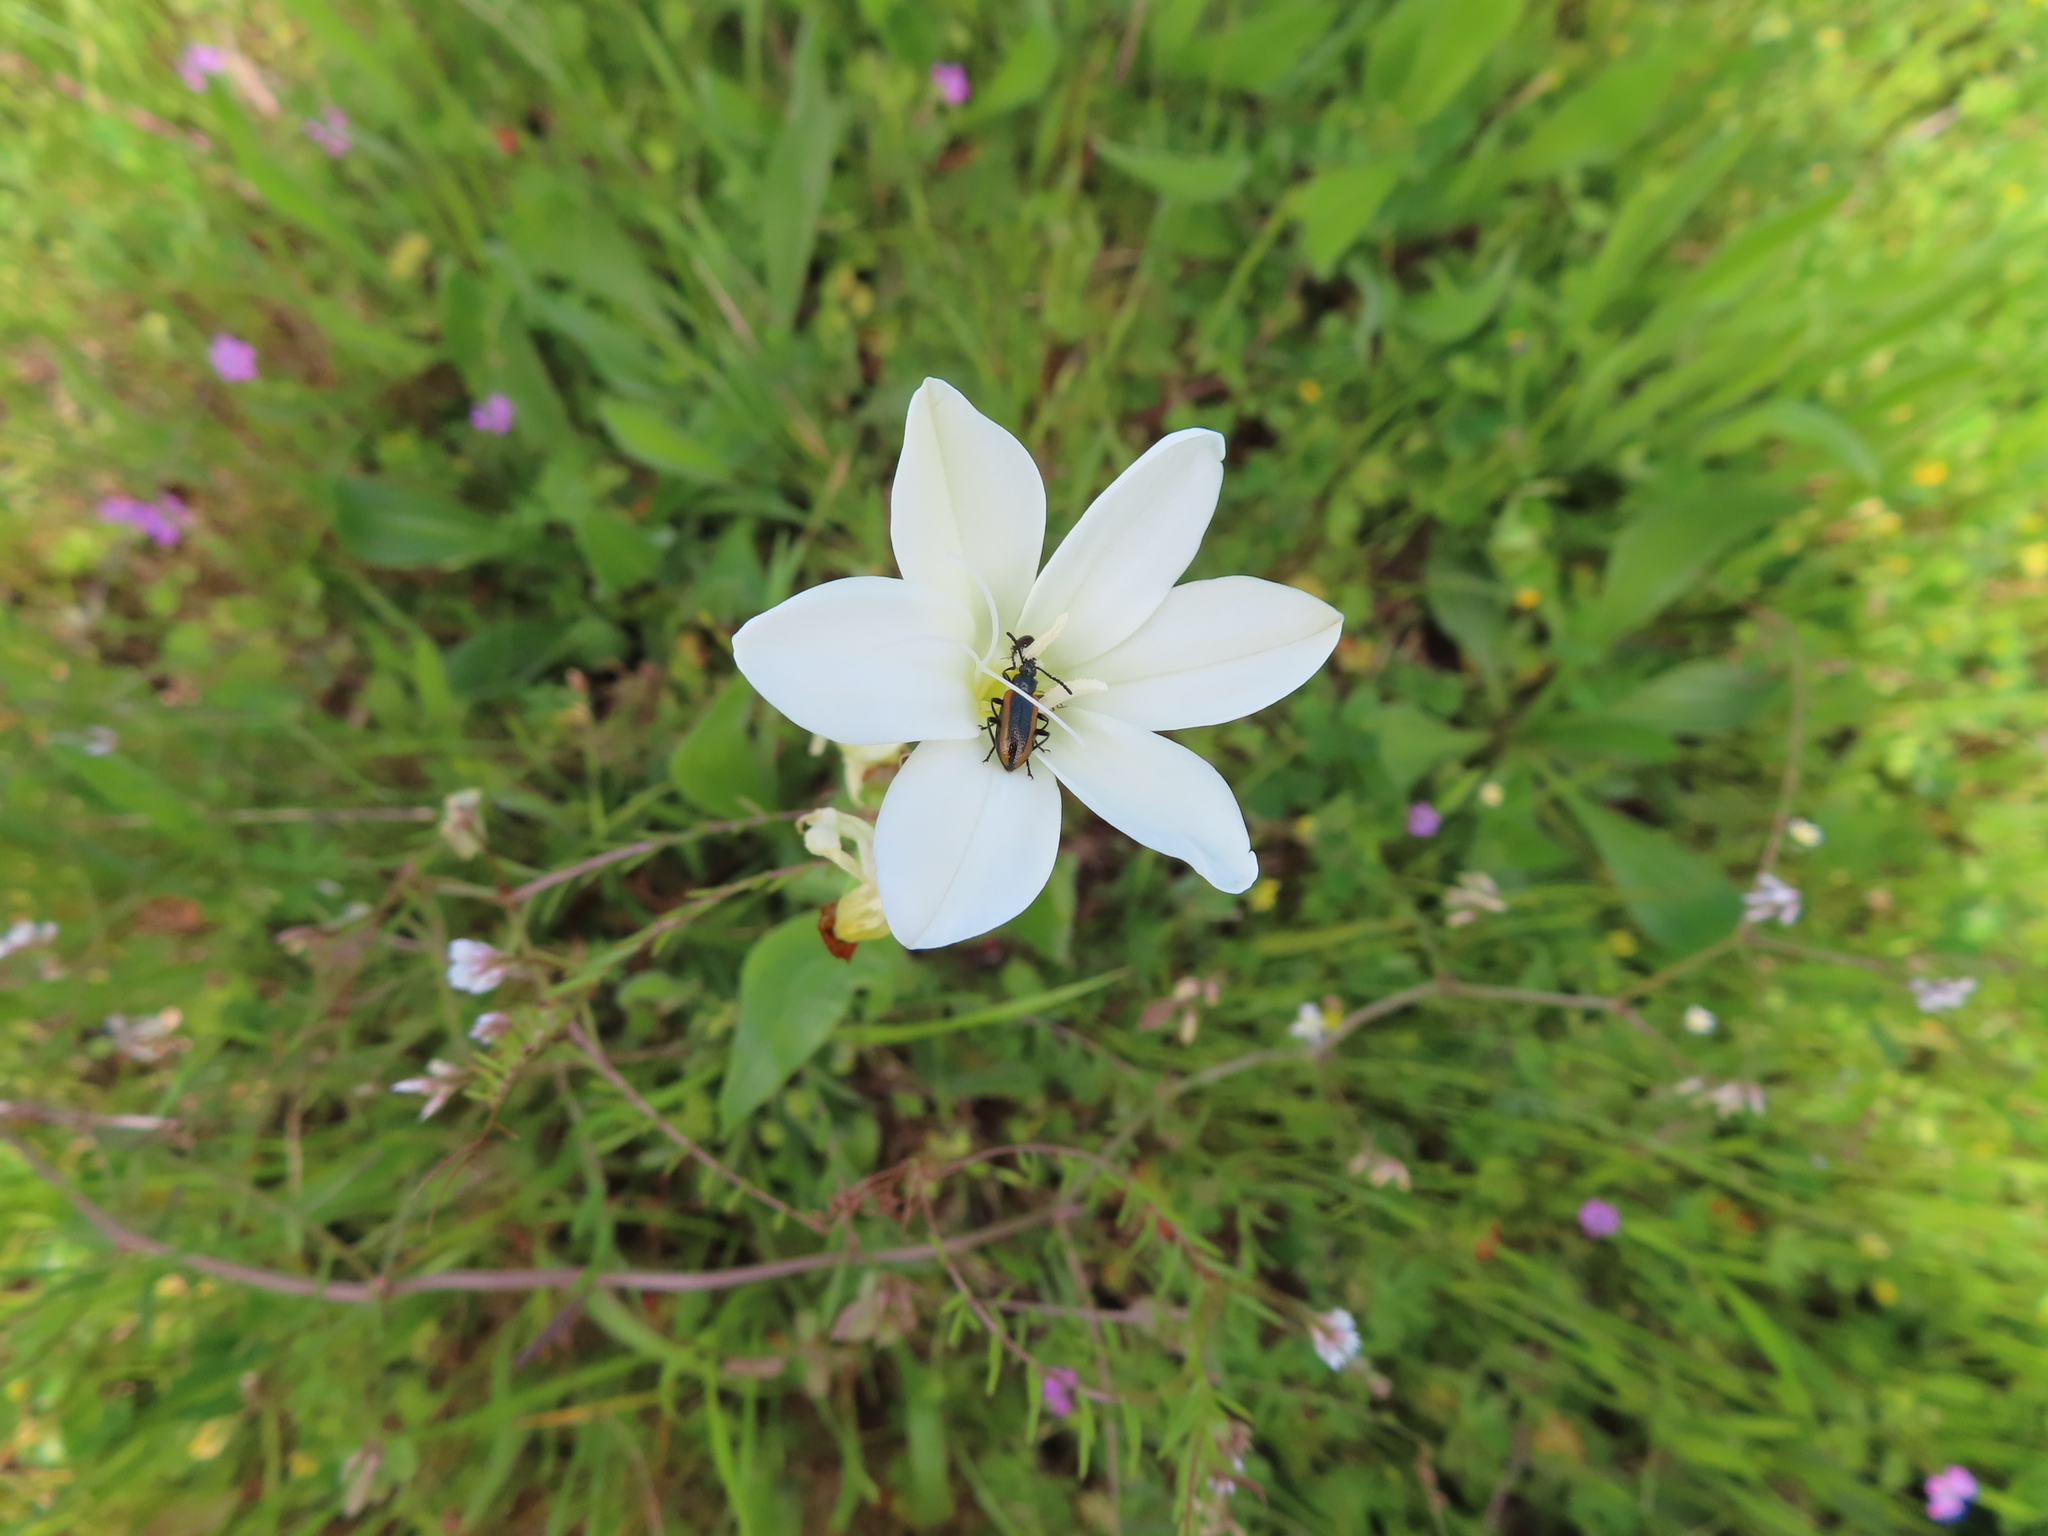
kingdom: Plantae
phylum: Tracheophyta
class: Liliopsida
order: Asparagales
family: Iridaceae
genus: Sparaxis
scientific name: Sparaxis bulbifera
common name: Harlequin-flower
